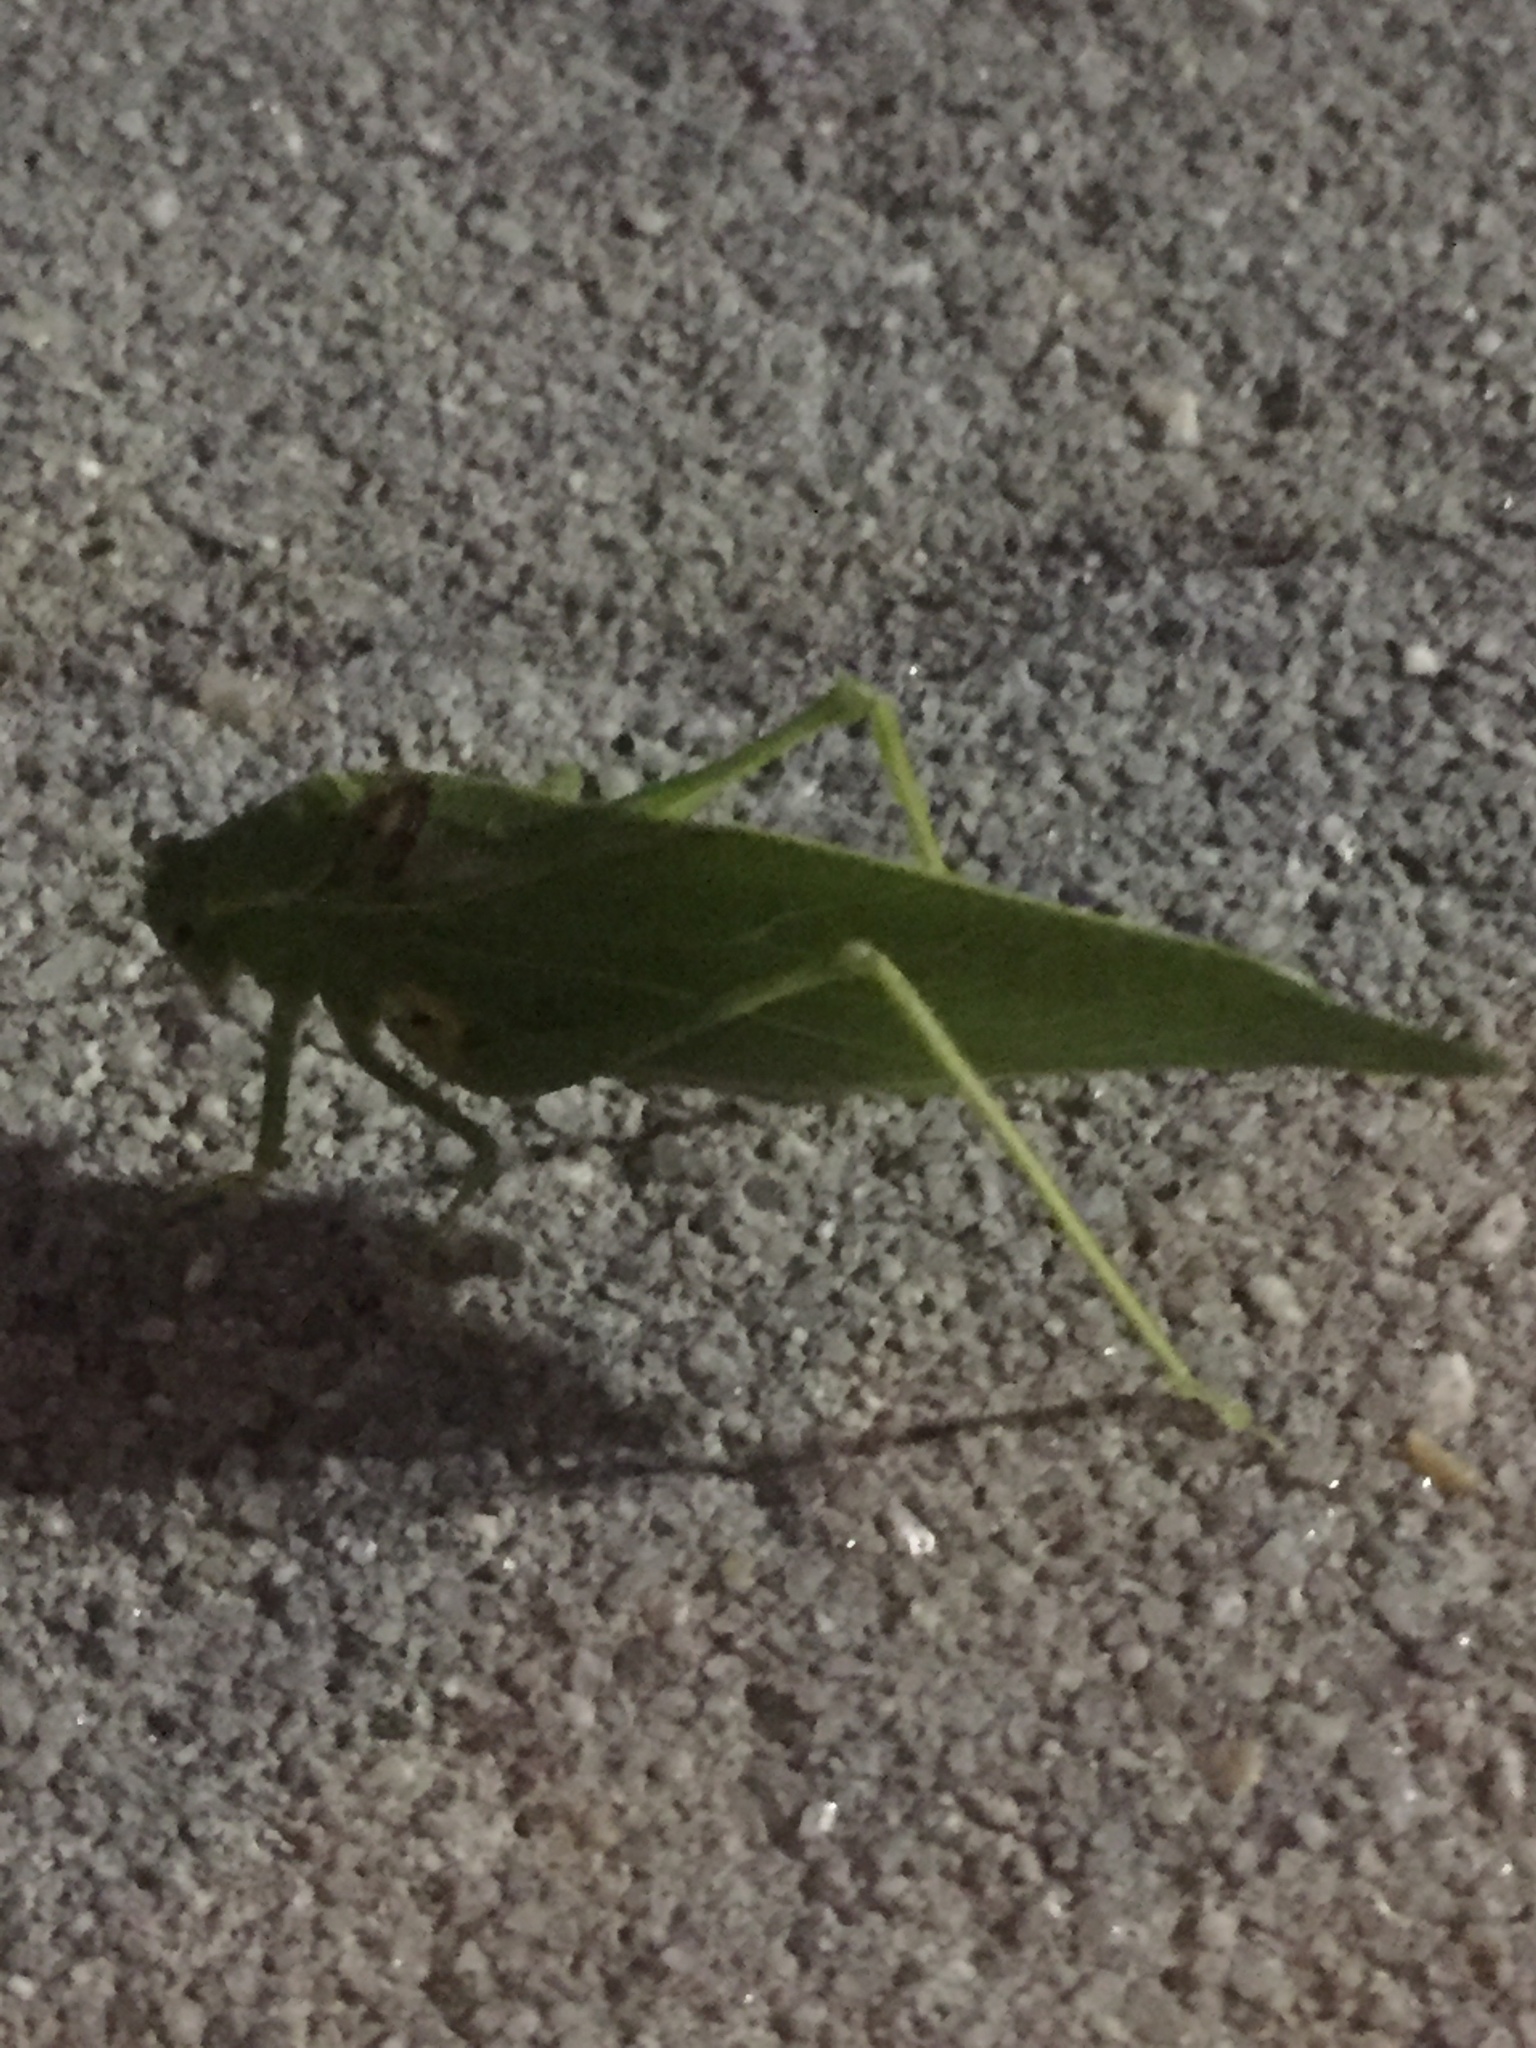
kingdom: Animalia
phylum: Arthropoda
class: Insecta
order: Orthoptera
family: Tettigoniidae
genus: Microcentrum
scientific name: Microcentrum retinerve
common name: Angular-winged katydid
